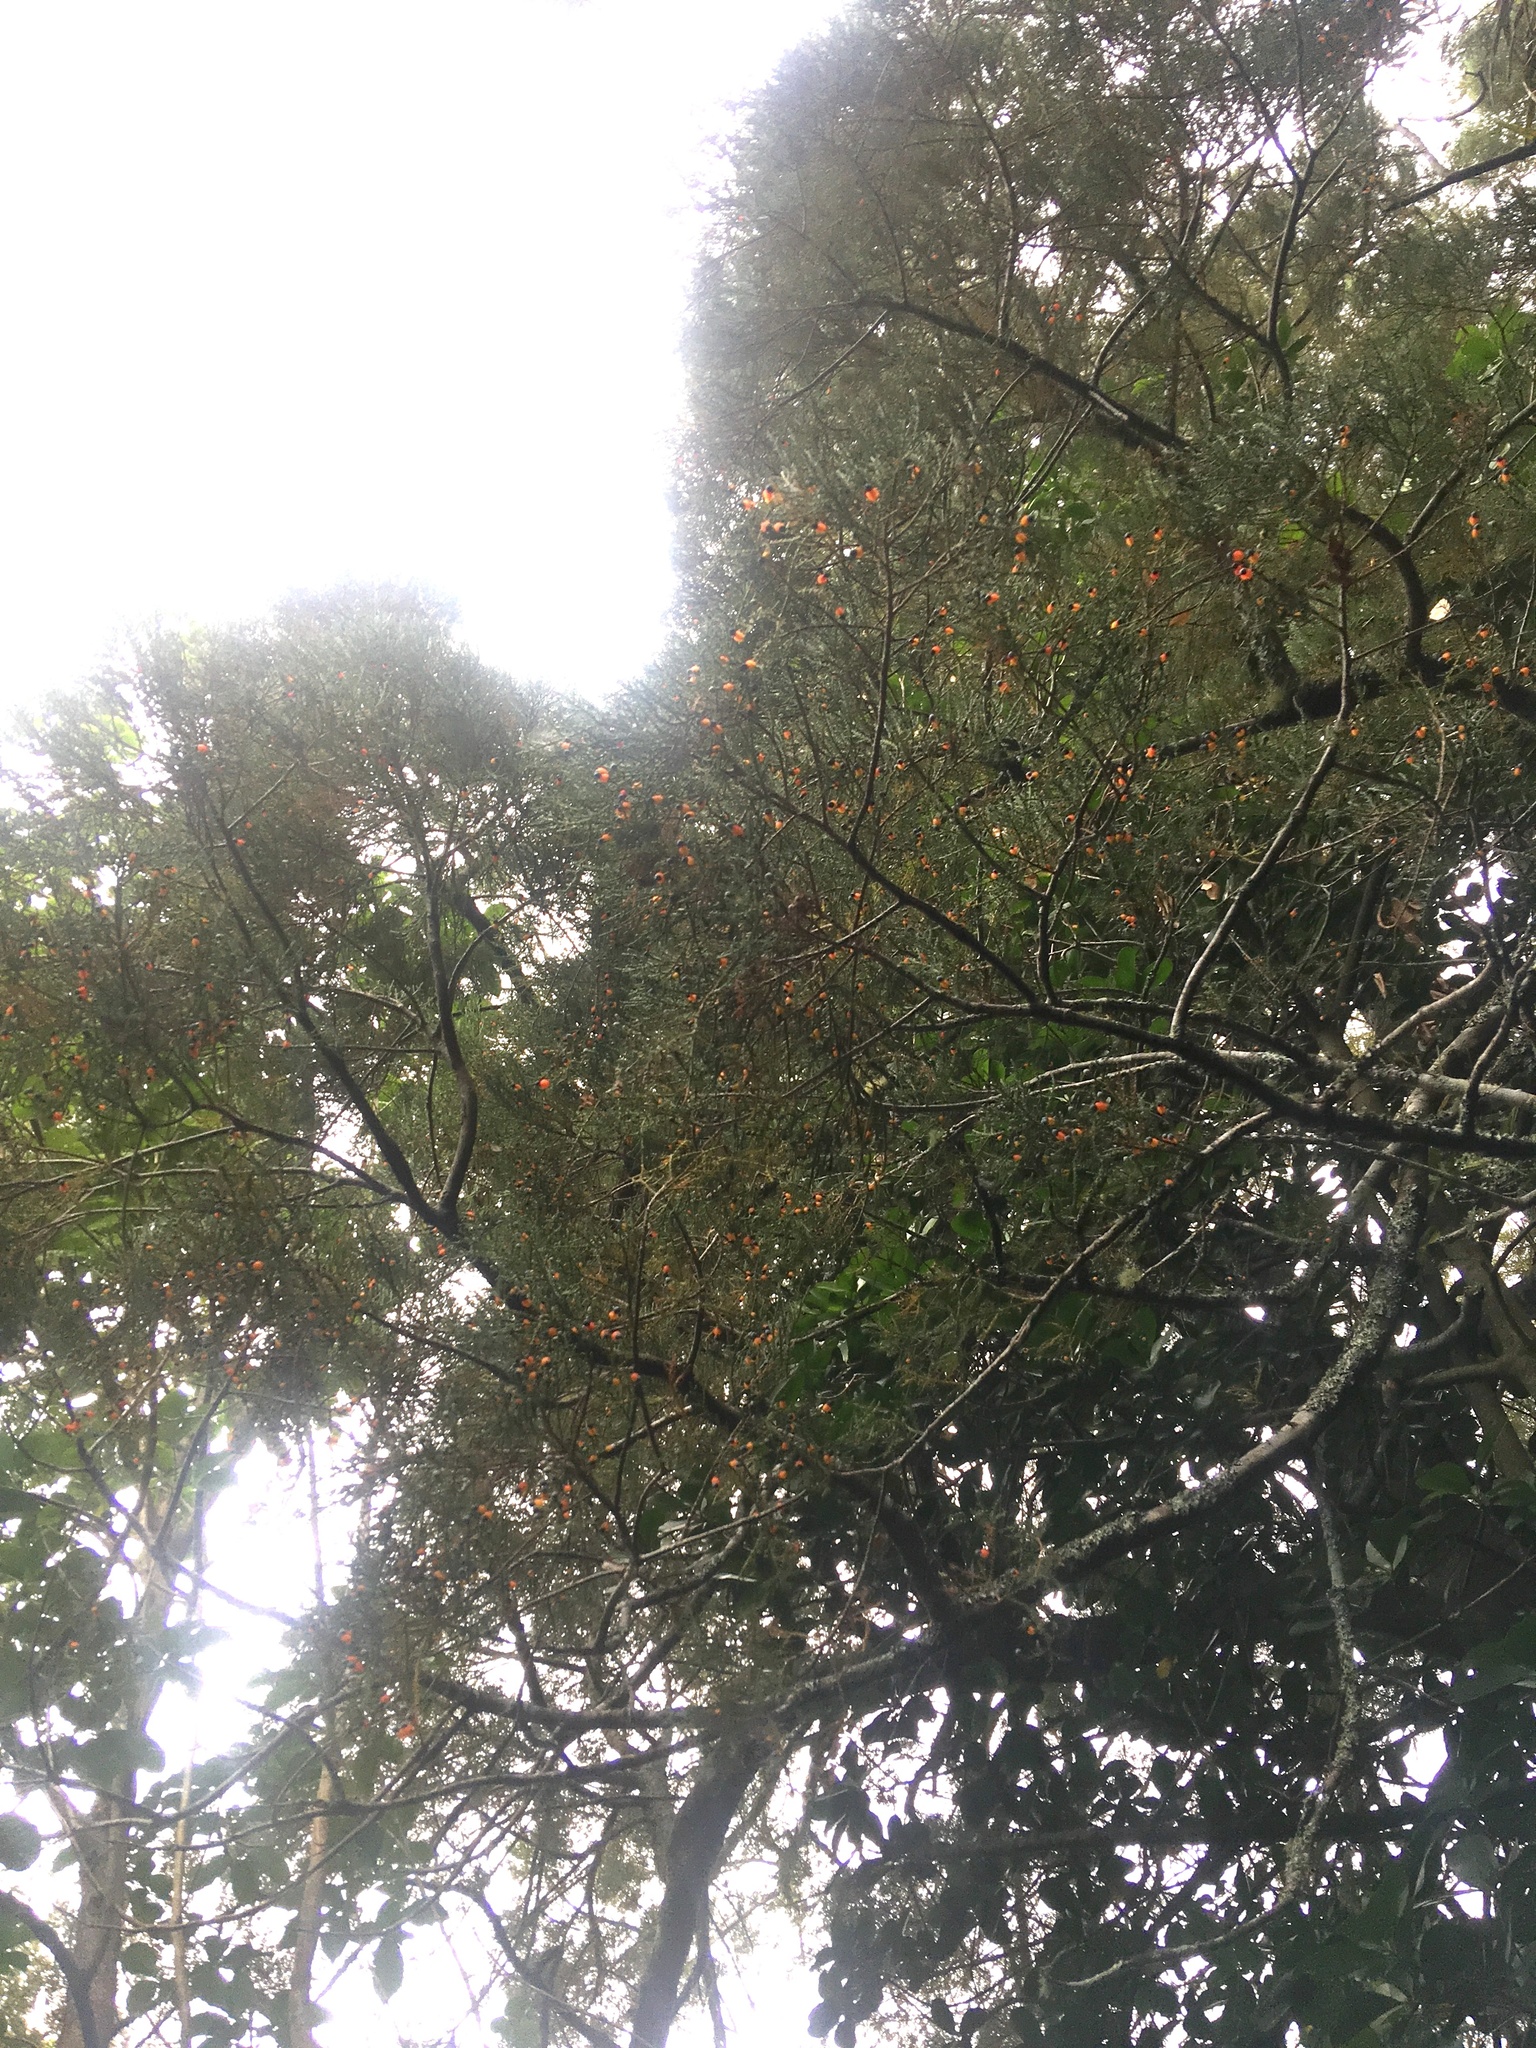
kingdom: Plantae
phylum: Tracheophyta
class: Pinopsida
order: Pinales
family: Podocarpaceae
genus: Dacrycarpus
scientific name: Dacrycarpus dacrydioides
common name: White pine
